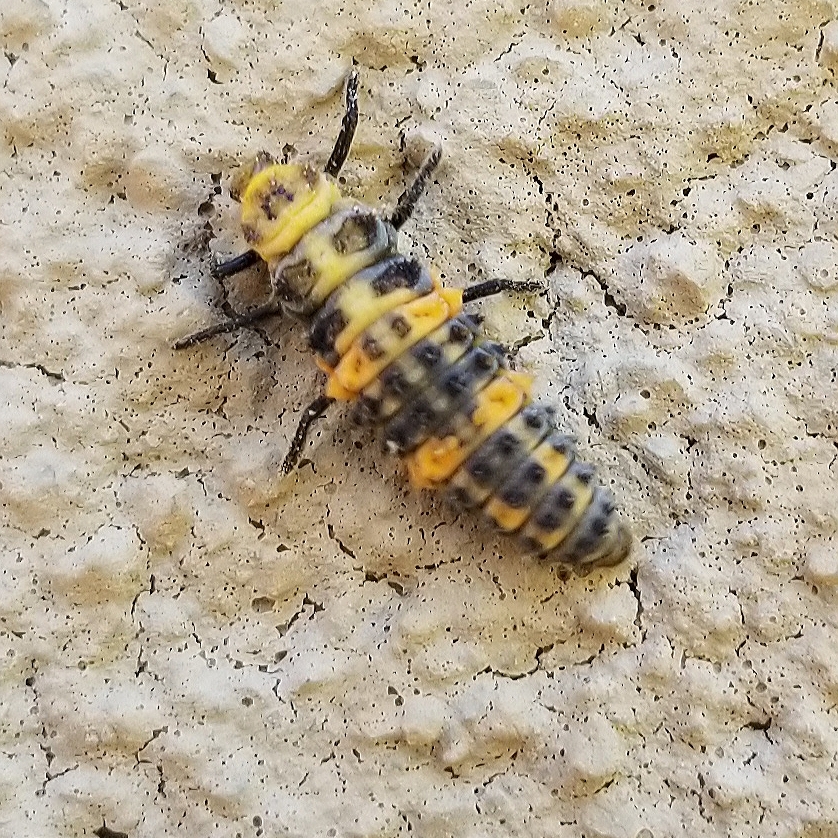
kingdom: Animalia
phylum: Arthropoda
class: Insecta
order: Coleoptera
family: Coccinellidae
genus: Hippodamia
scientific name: Hippodamia convergens
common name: Convergent lady beetle
